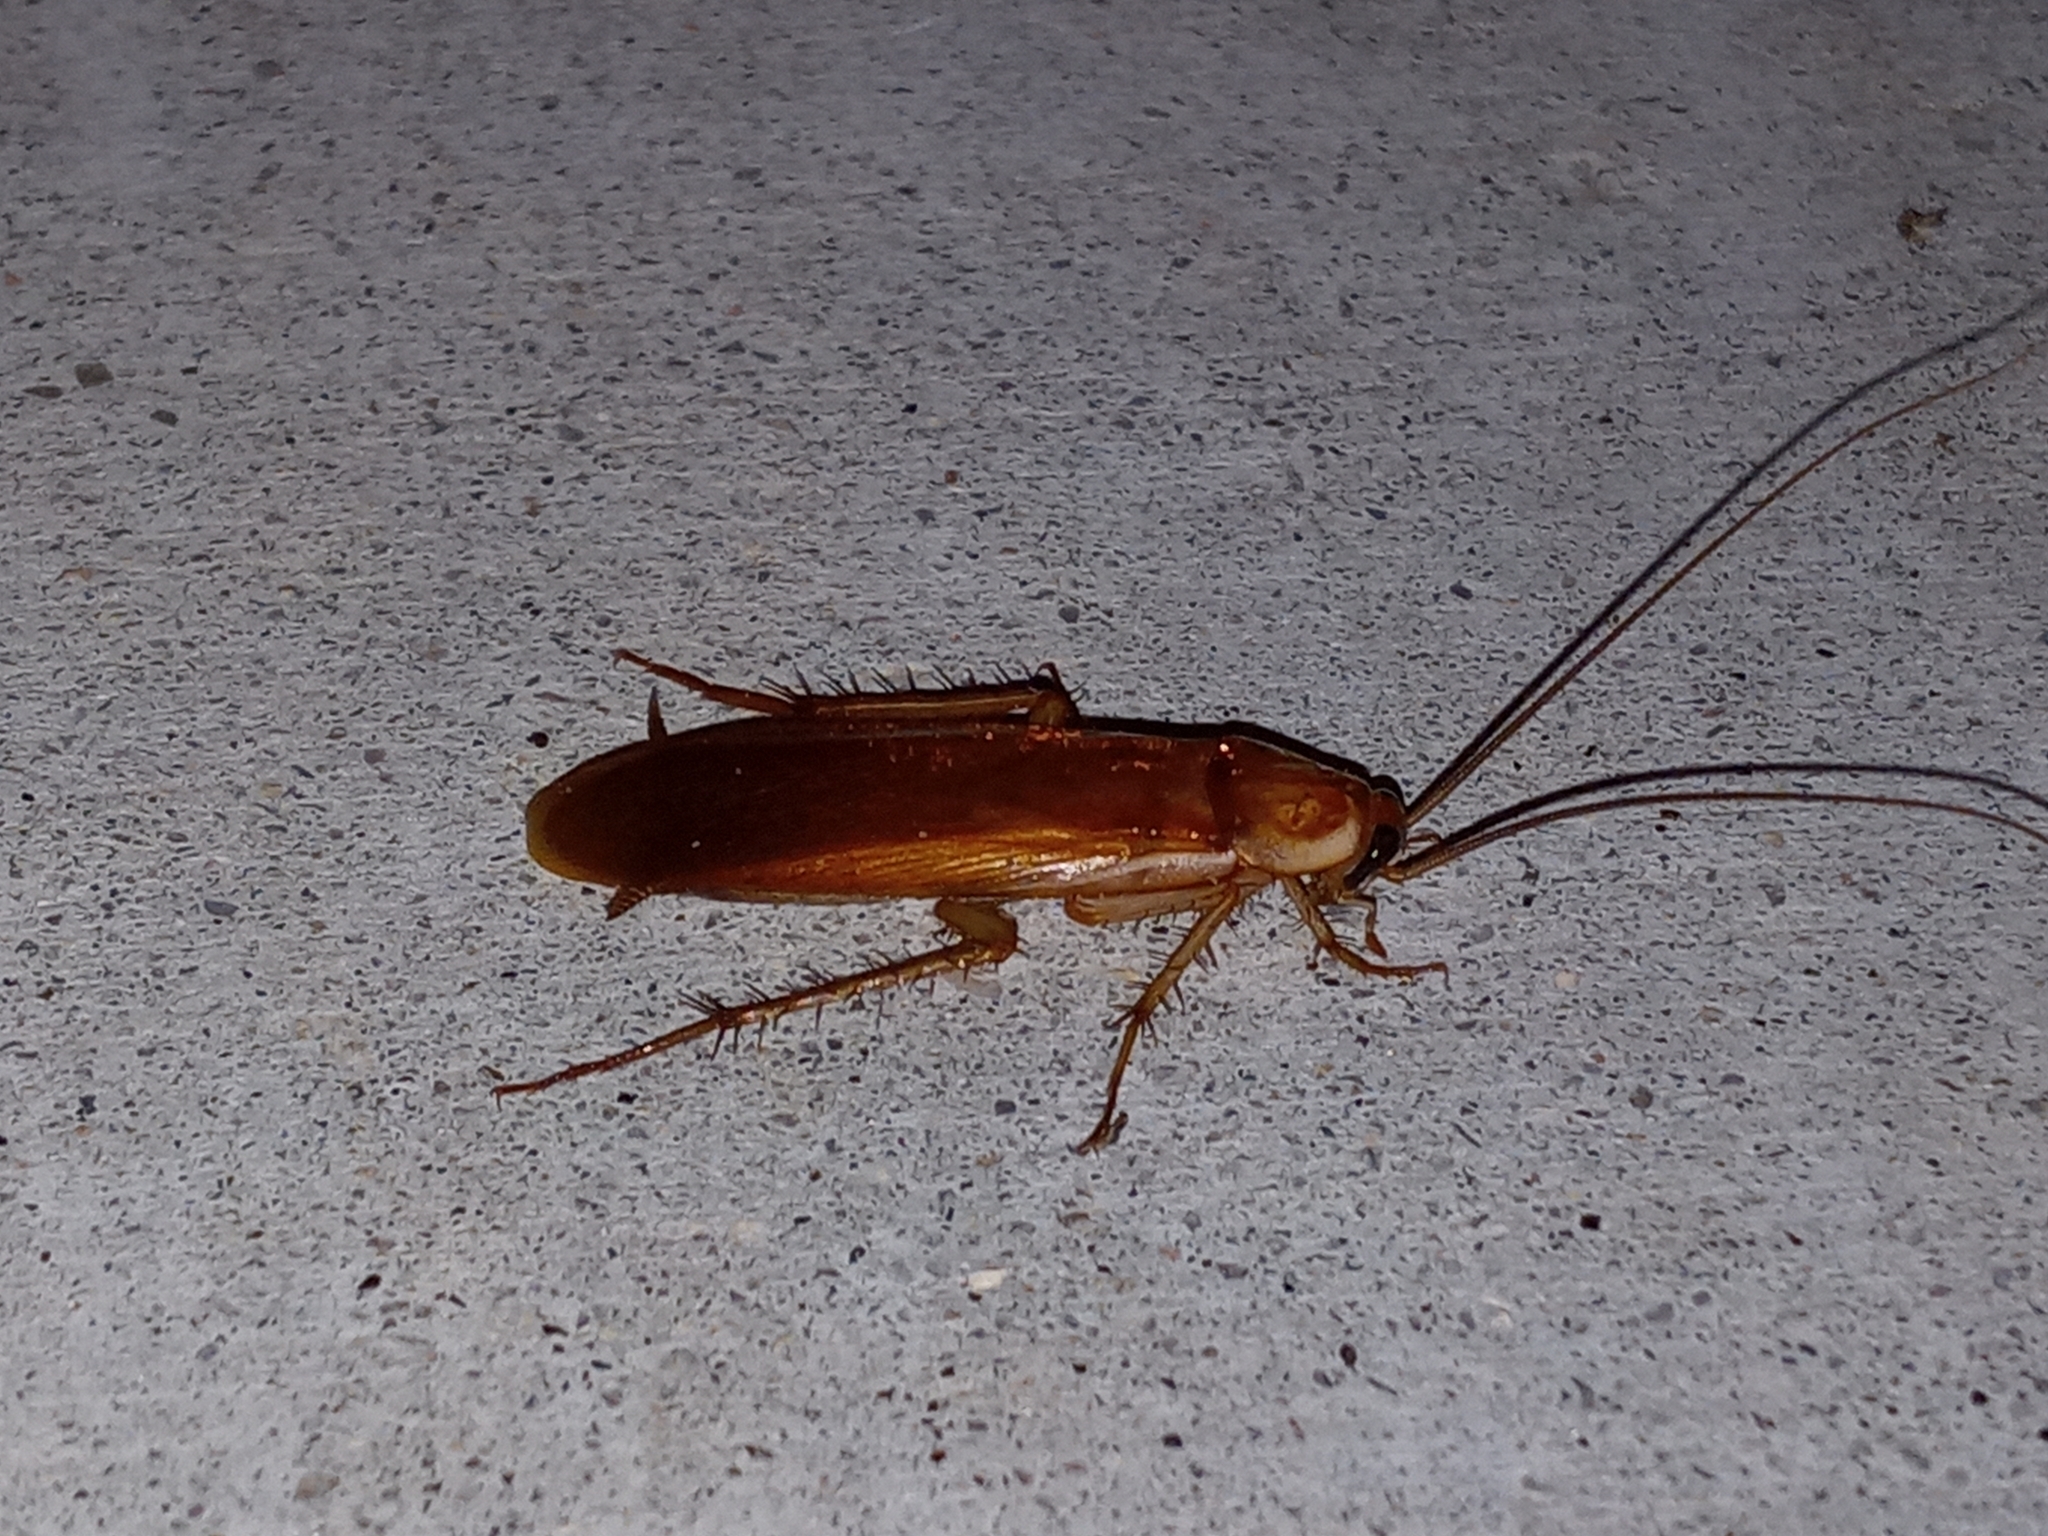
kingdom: Animalia
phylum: Arthropoda
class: Insecta
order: Blattodea
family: Blattidae
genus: Periplaneta
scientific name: Periplaneta lateralis
